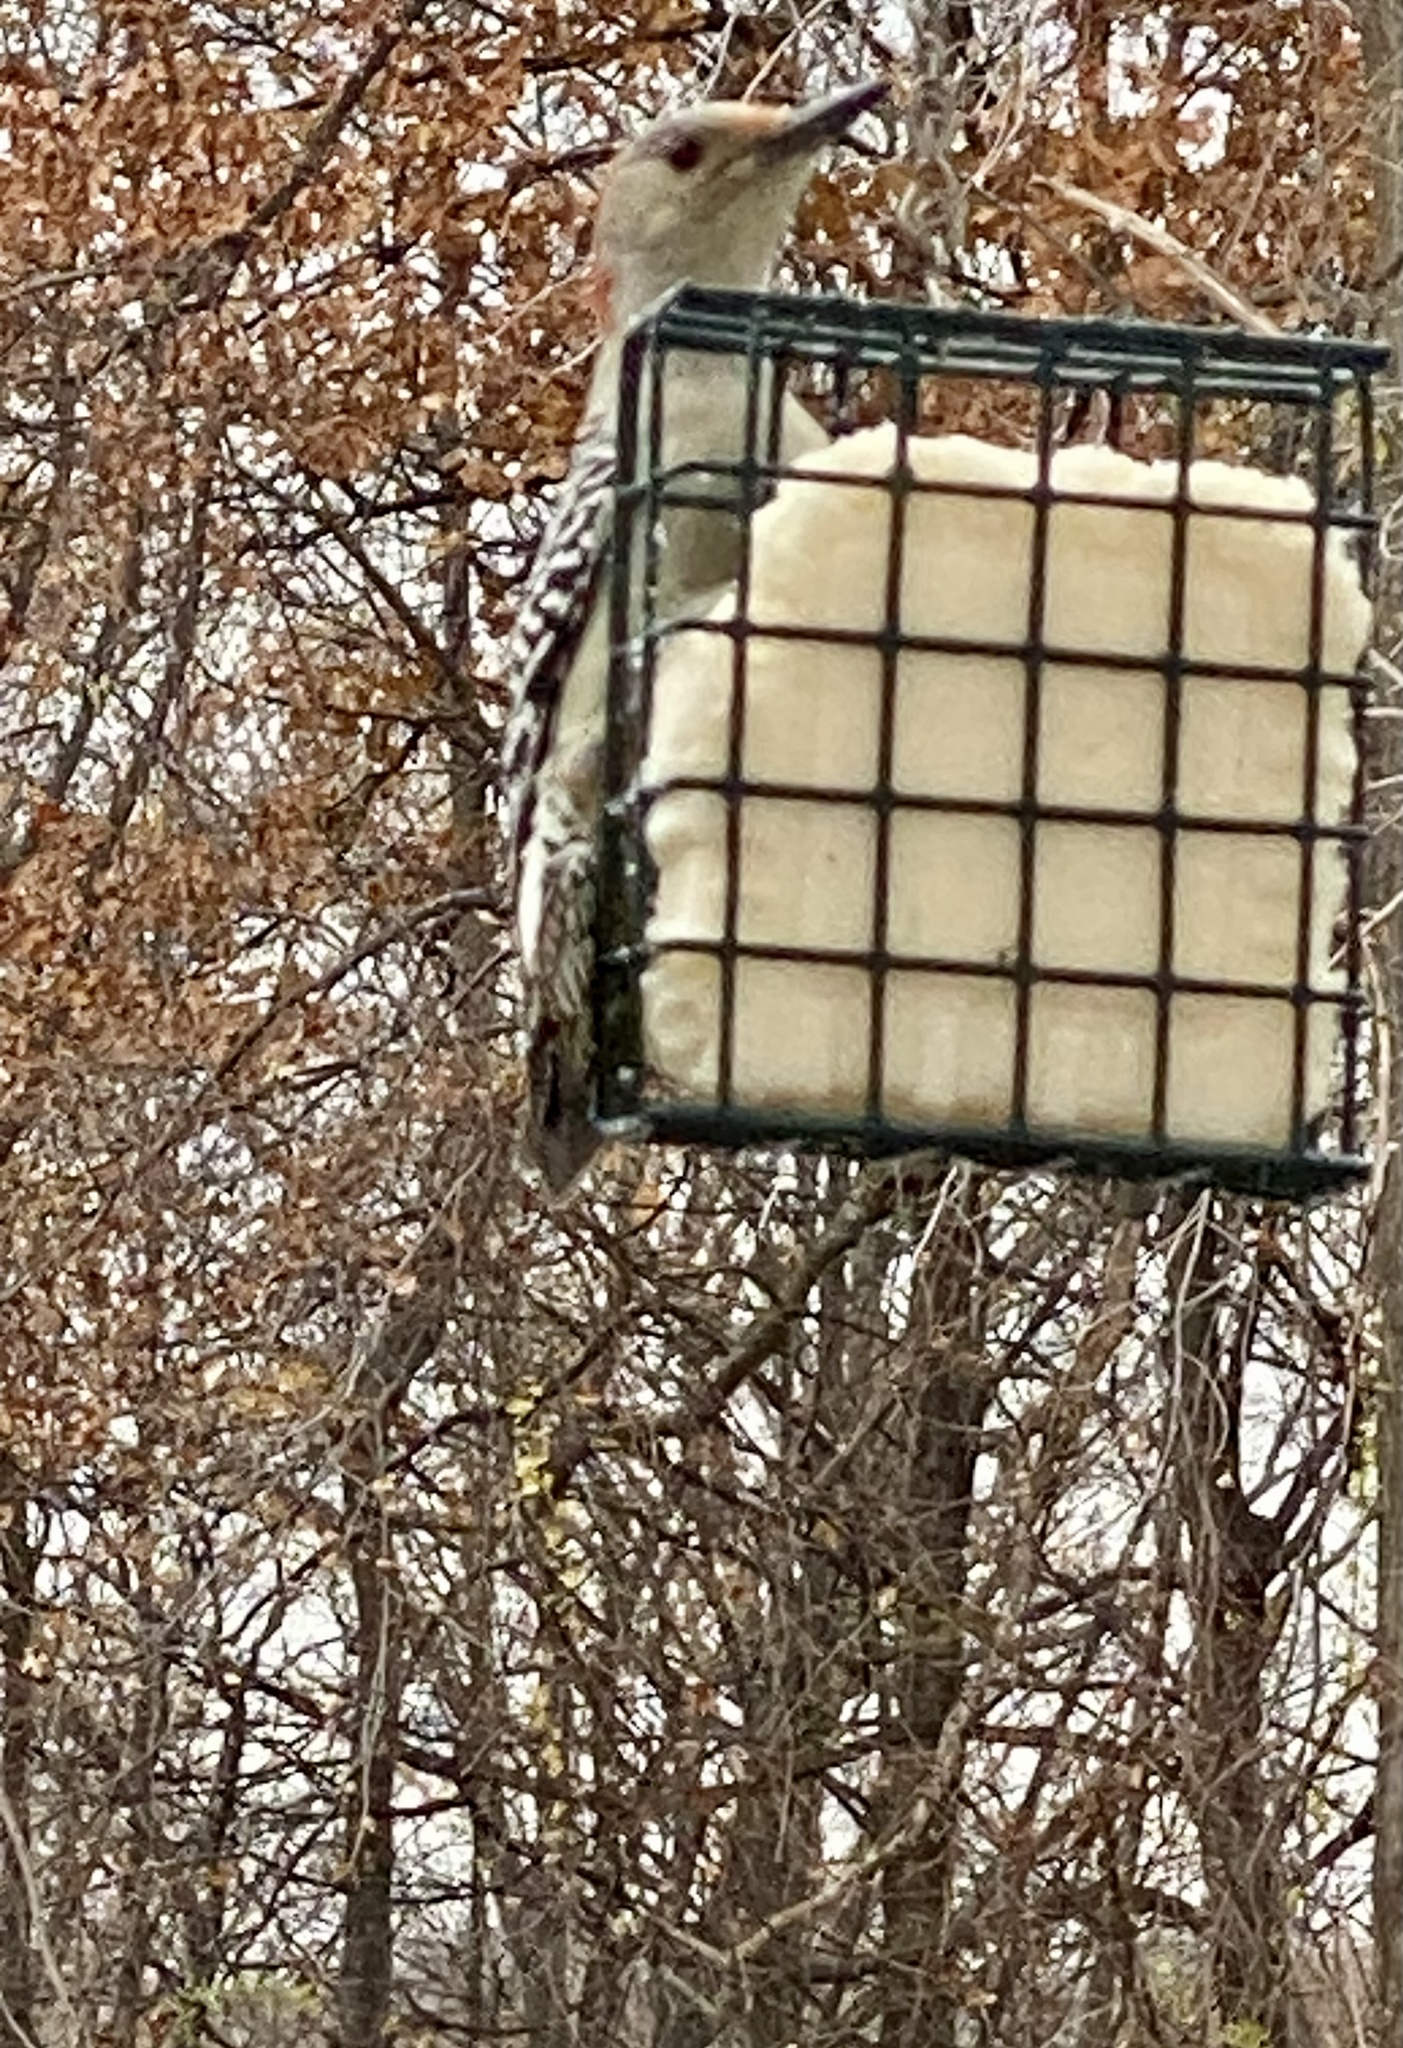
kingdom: Animalia
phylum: Chordata
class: Aves
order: Piciformes
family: Picidae
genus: Melanerpes
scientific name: Melanerpes carolinus
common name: Red-bellied woodpecker
